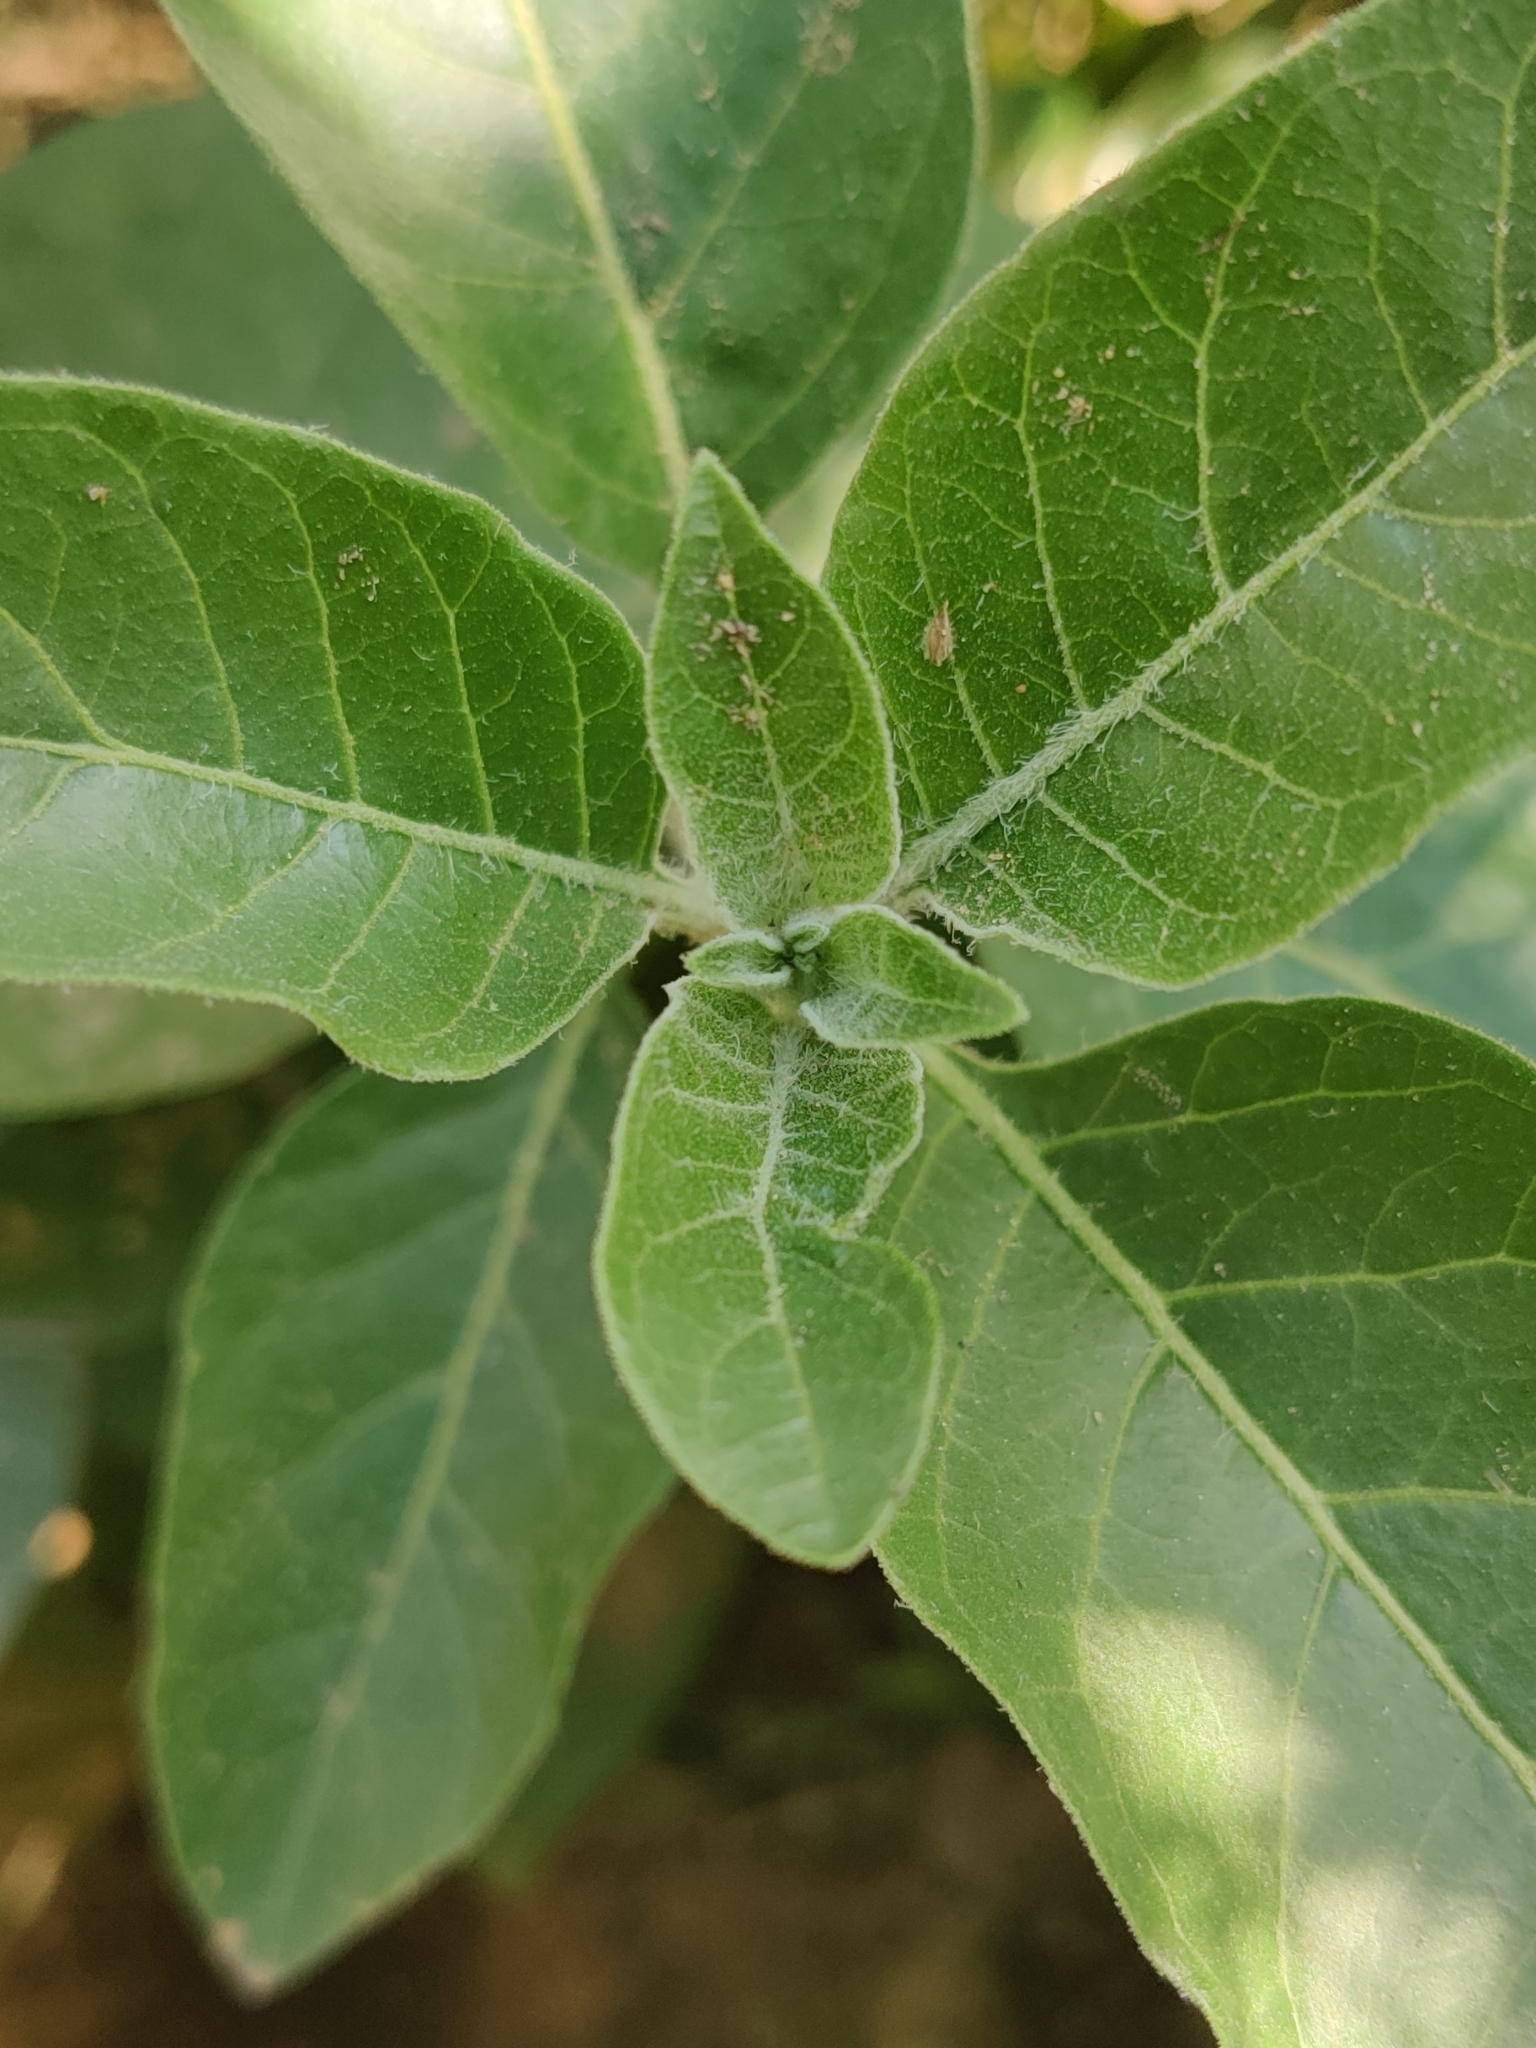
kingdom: Plantae
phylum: Tracheophyta
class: Magnoliopsida
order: Solanales
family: Solanaceae
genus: Withania
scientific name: Withania somnifera
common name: Winter-cherry
